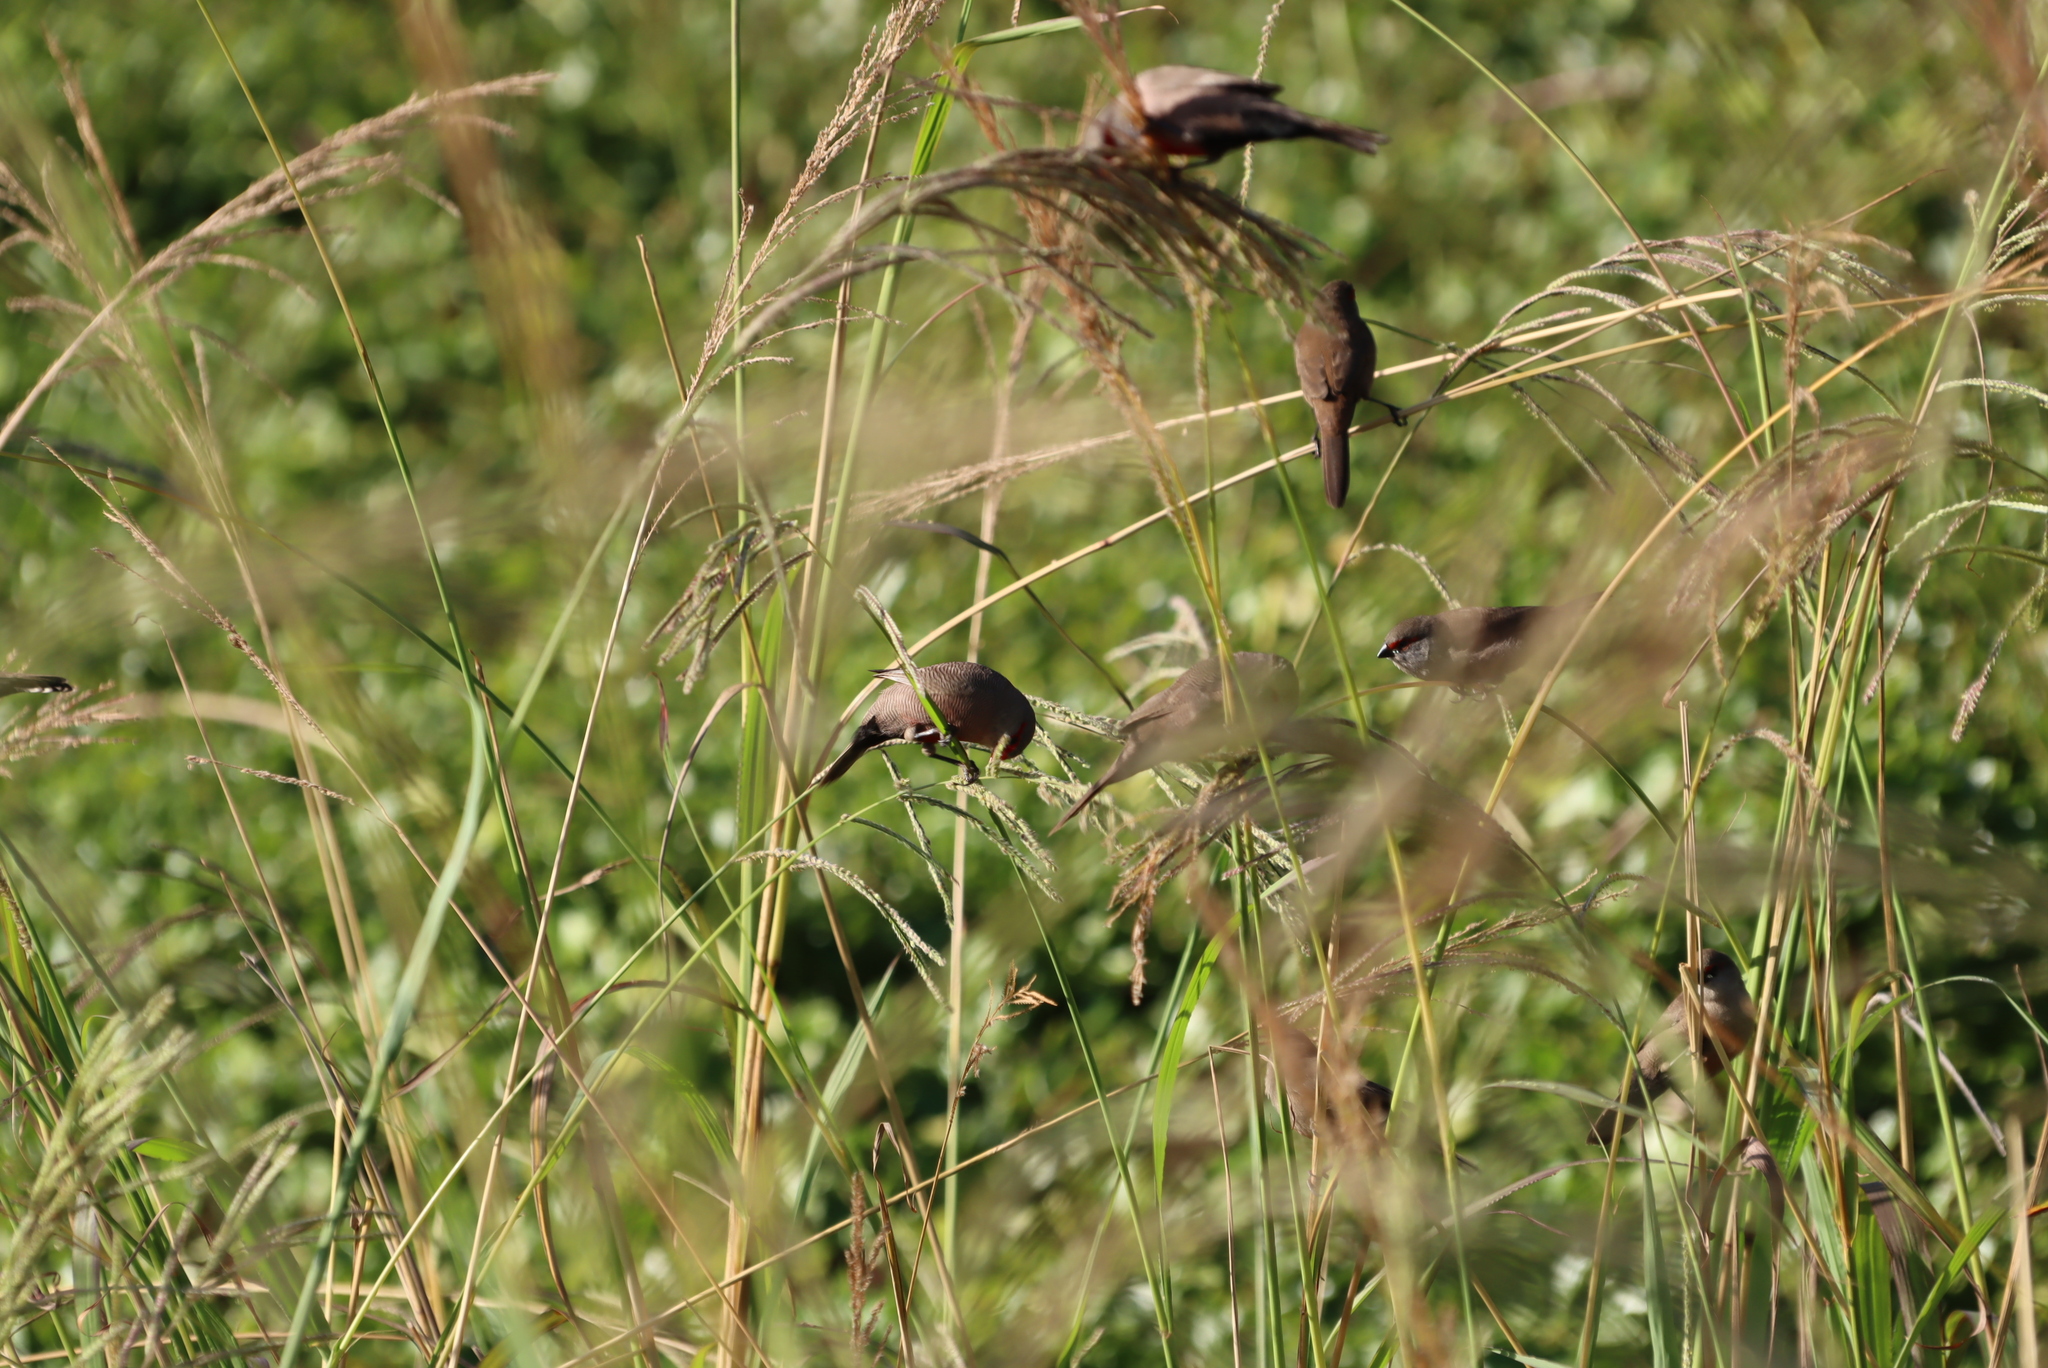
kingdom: Animalia
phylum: Chordata
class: Aves
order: Passeriformes
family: Estrildidae
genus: Estrilda
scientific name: Estrilda astrild
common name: Common waxbill
